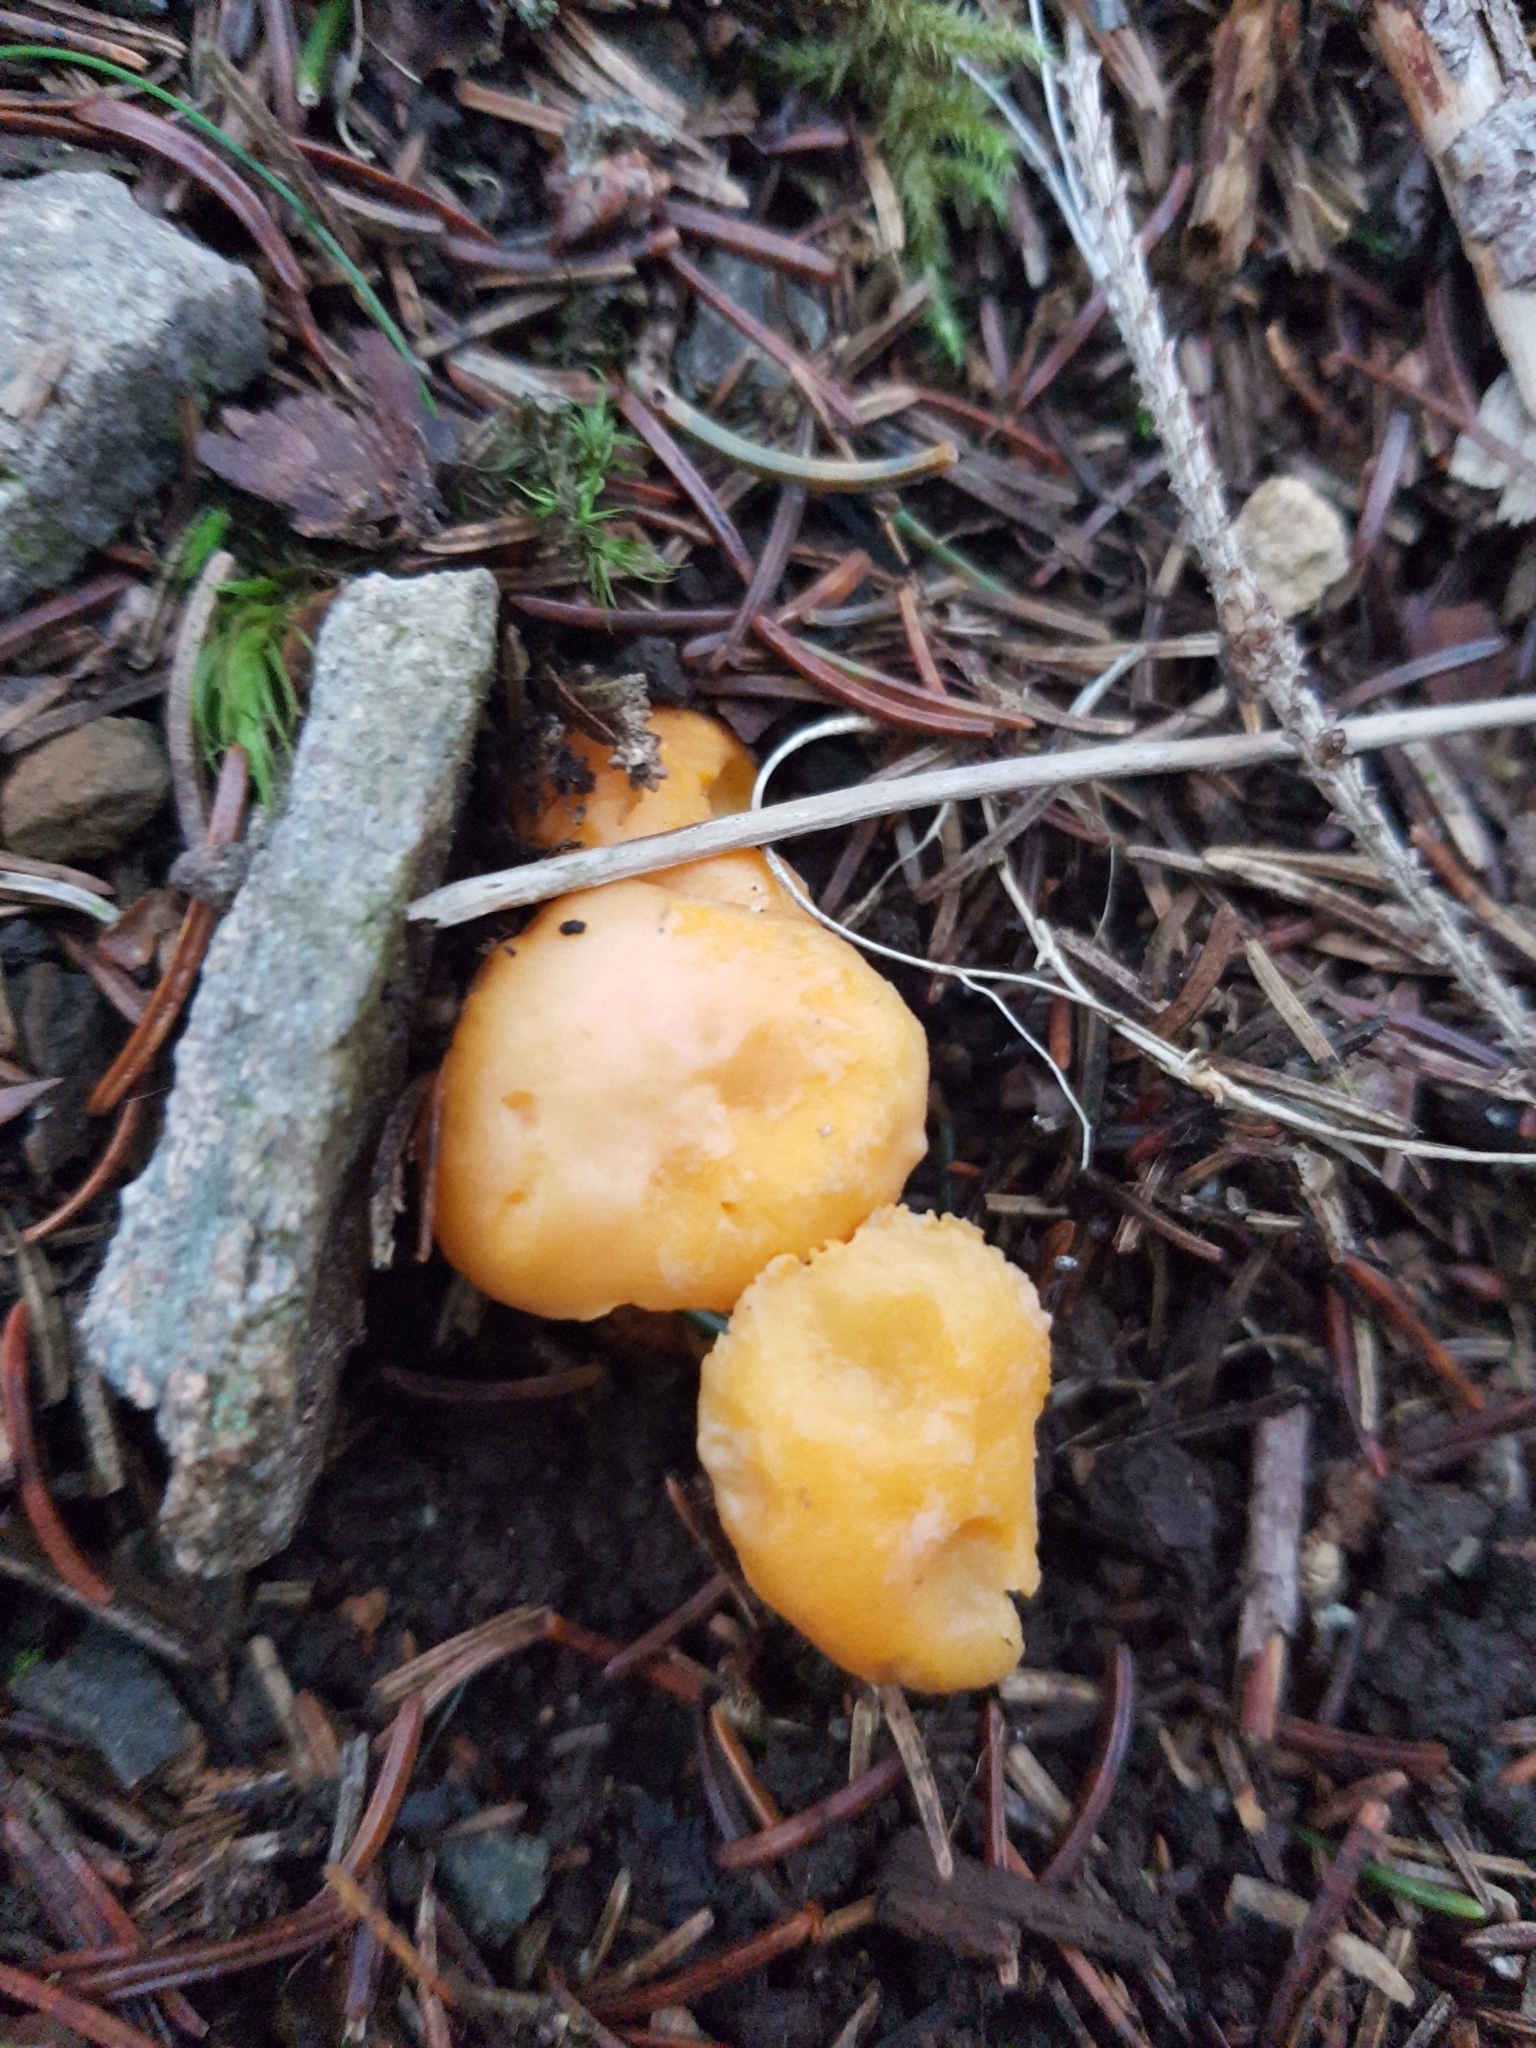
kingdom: Fungi
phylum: Basidiomycota
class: Agaricomycetes
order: Cantharellales
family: Hydnaceae
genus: Cantharellus
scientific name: Cantharellus cibarius
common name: Chanterelle
